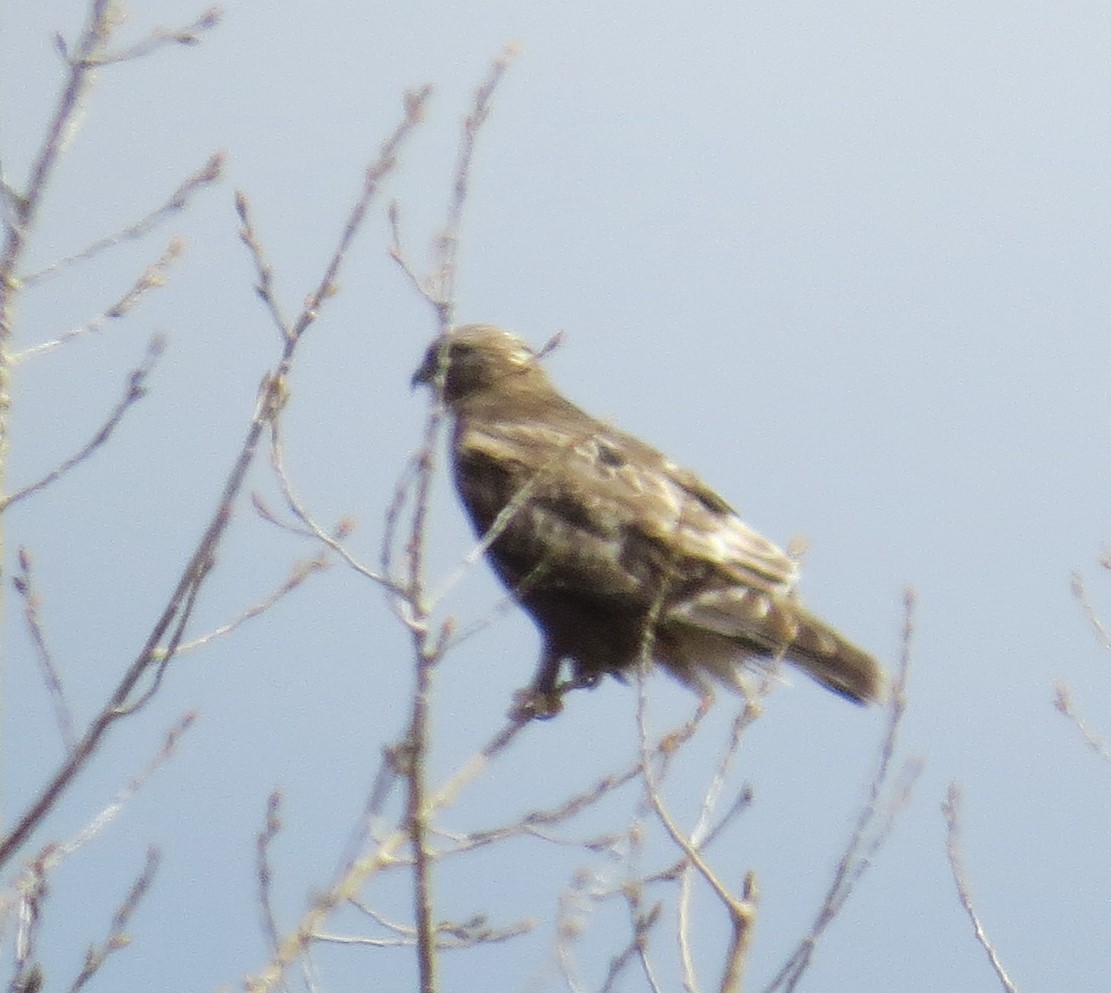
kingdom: Animalia
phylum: Chordata
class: Aves
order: Accipitriformes
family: Accipitridae
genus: Buteo
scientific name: Buteo lagopus
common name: Rough-legged buzzard
